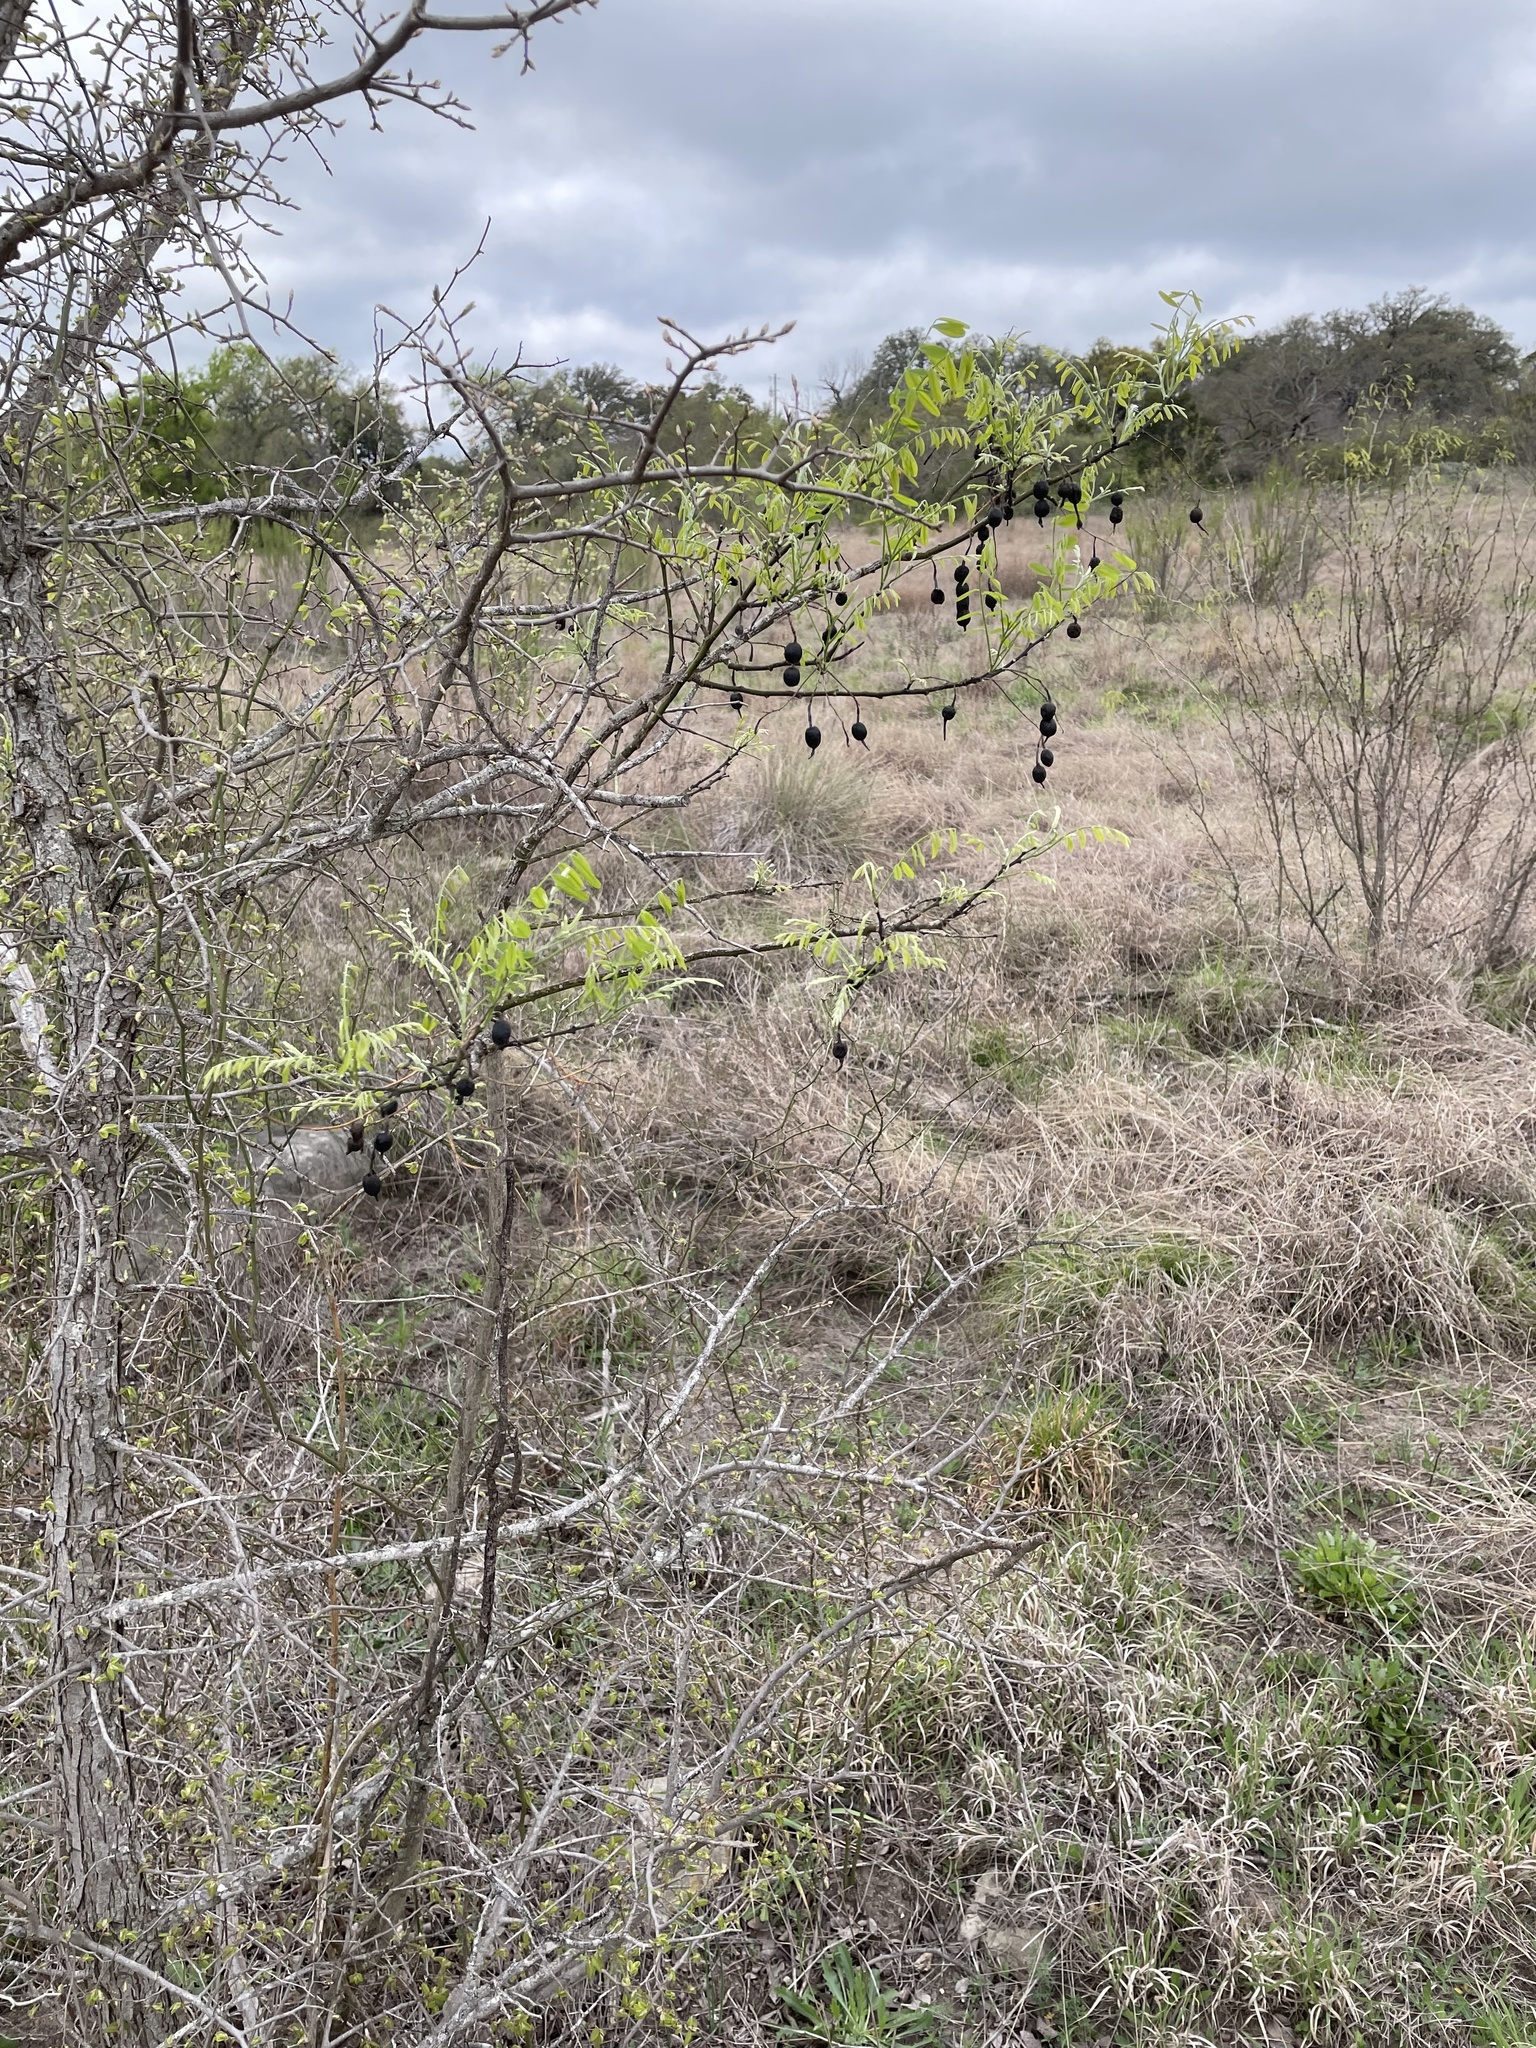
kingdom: Plantae
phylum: Tracheophyta
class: Magnoliopsida
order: Fabales
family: Fabaceae
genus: Styphnolobium
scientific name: Styphnolobium affine
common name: Texas sophora
